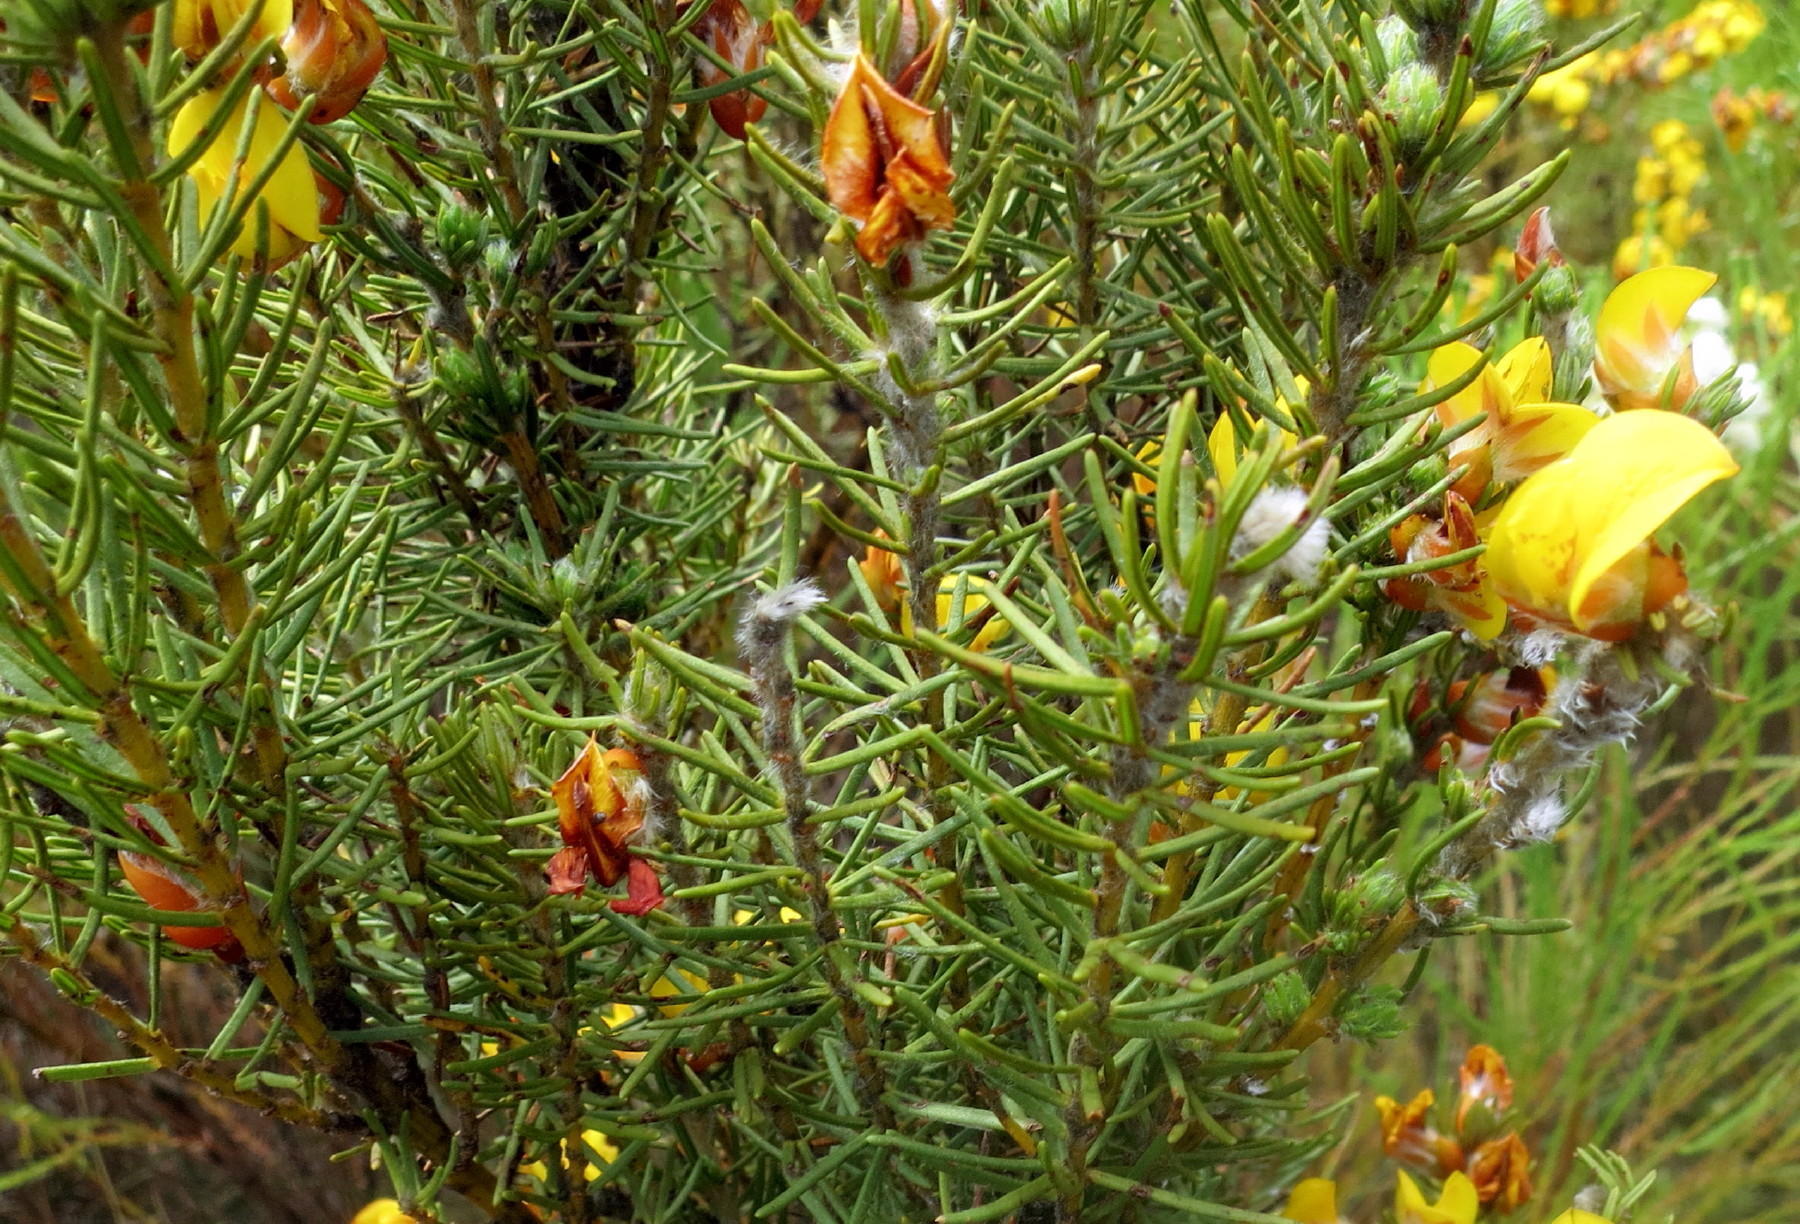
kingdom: Plantae
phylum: Tracheophyta
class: Magnoliopsida
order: Fabales
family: Fabaceae
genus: Cyclopia
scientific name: Cyclopia genistoides
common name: Honeybush tea
